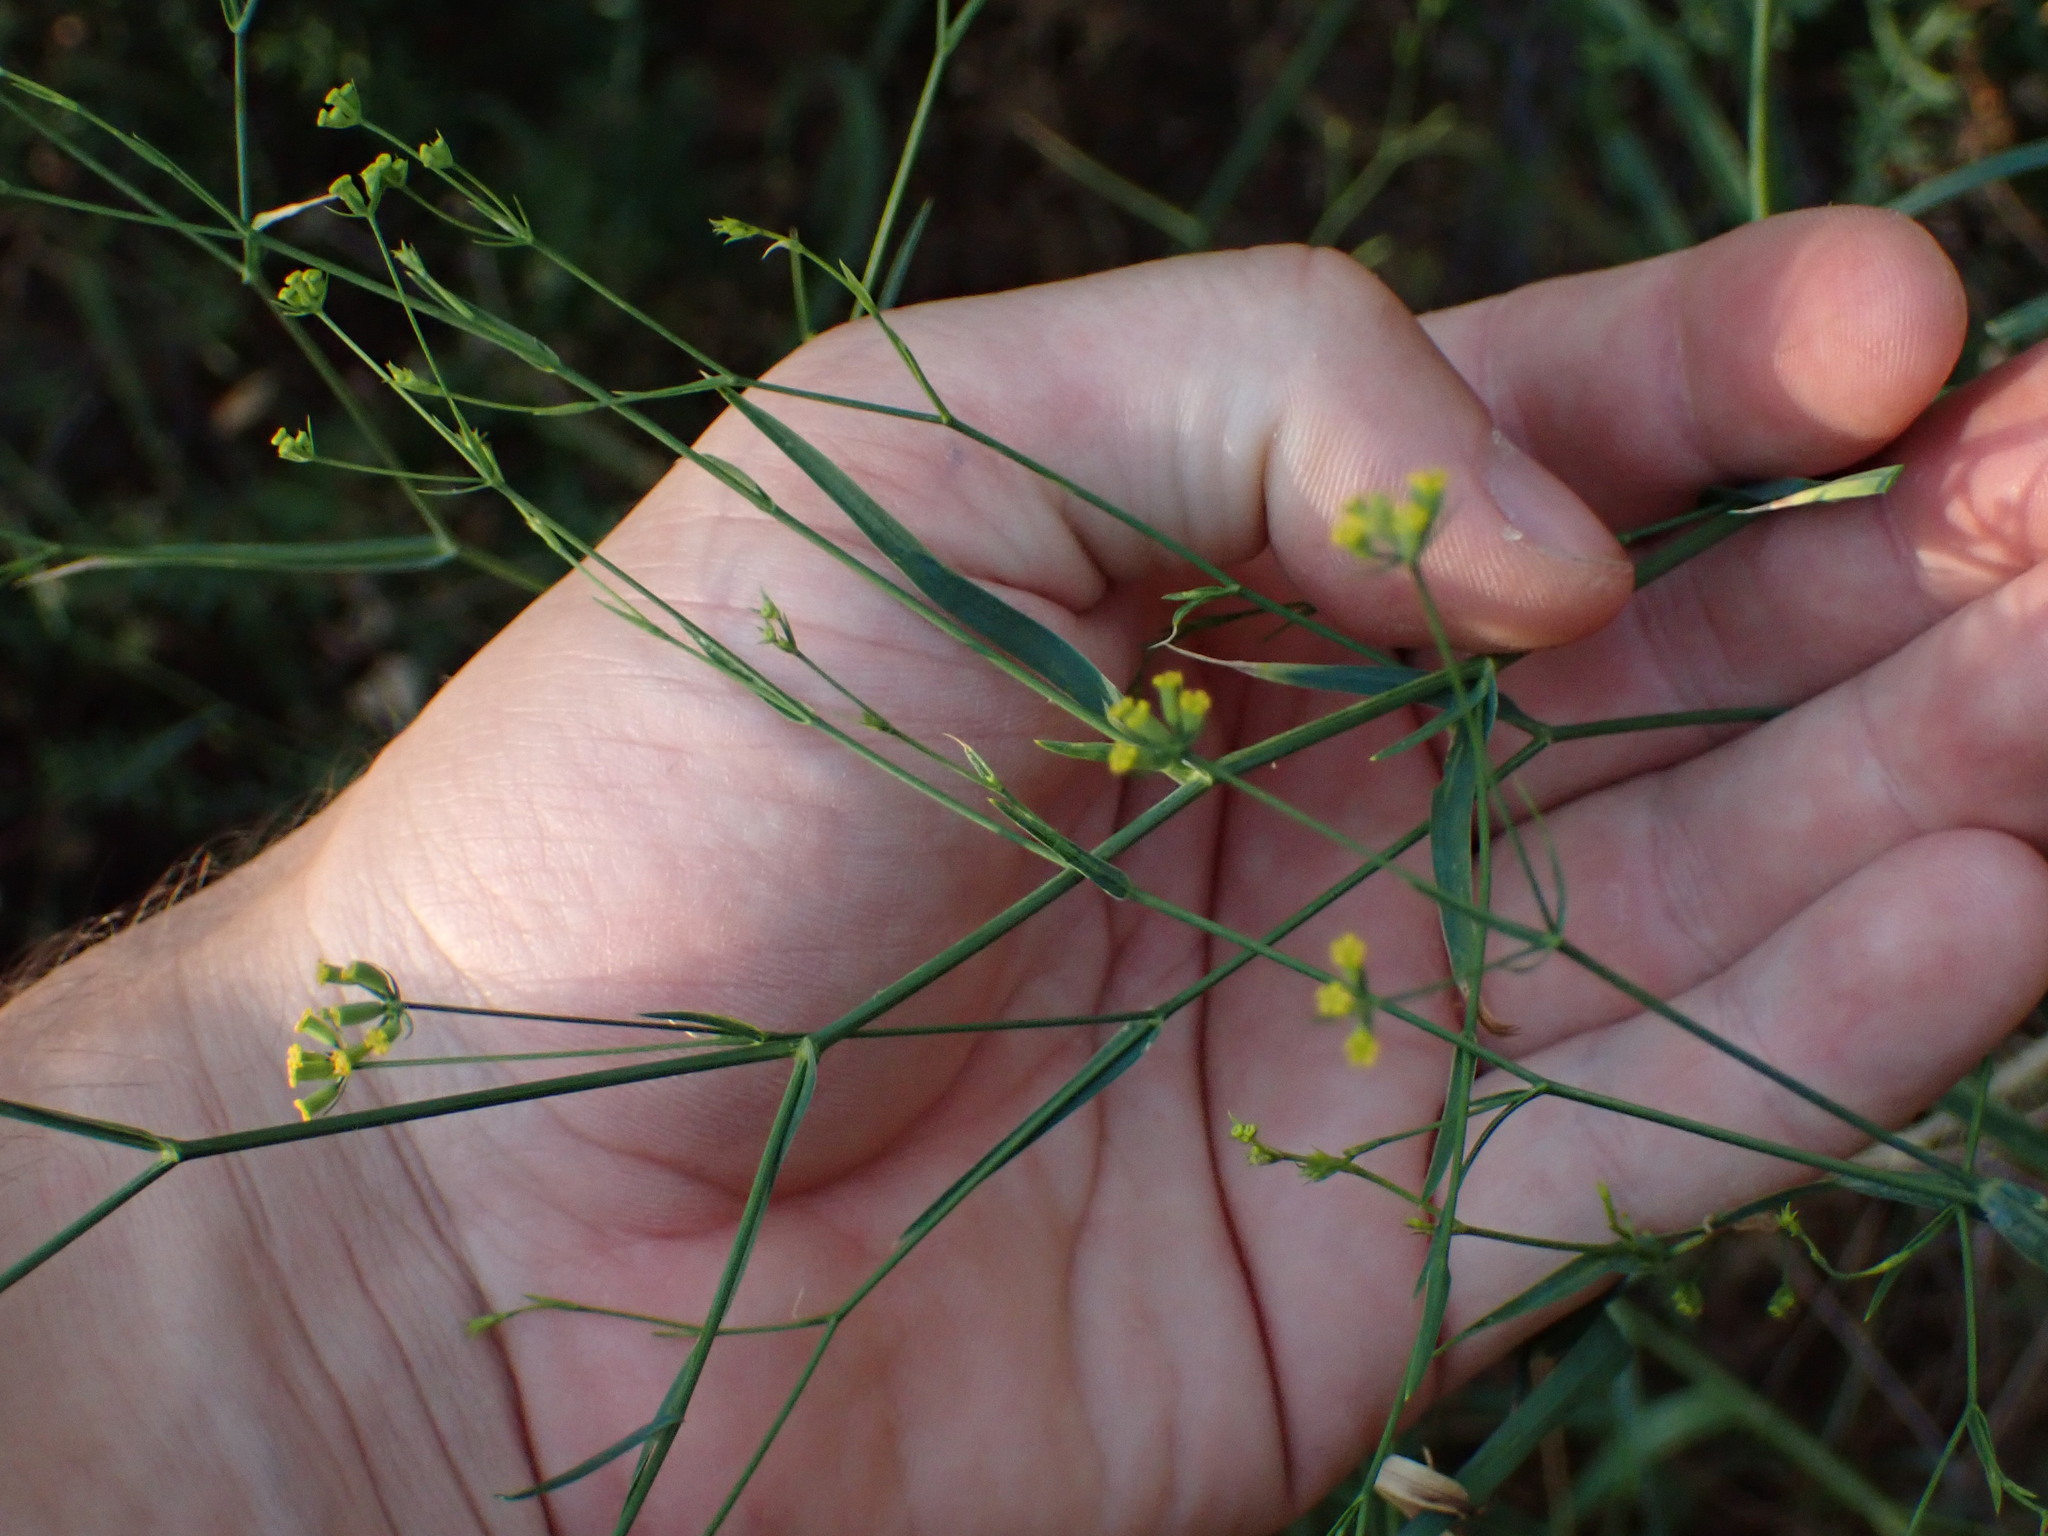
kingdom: Plantae
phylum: Tracheophyta
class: Magnoliopsida
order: Apiales
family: Apiaceae
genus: Bupleurum
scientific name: Bupleurum praealtum
